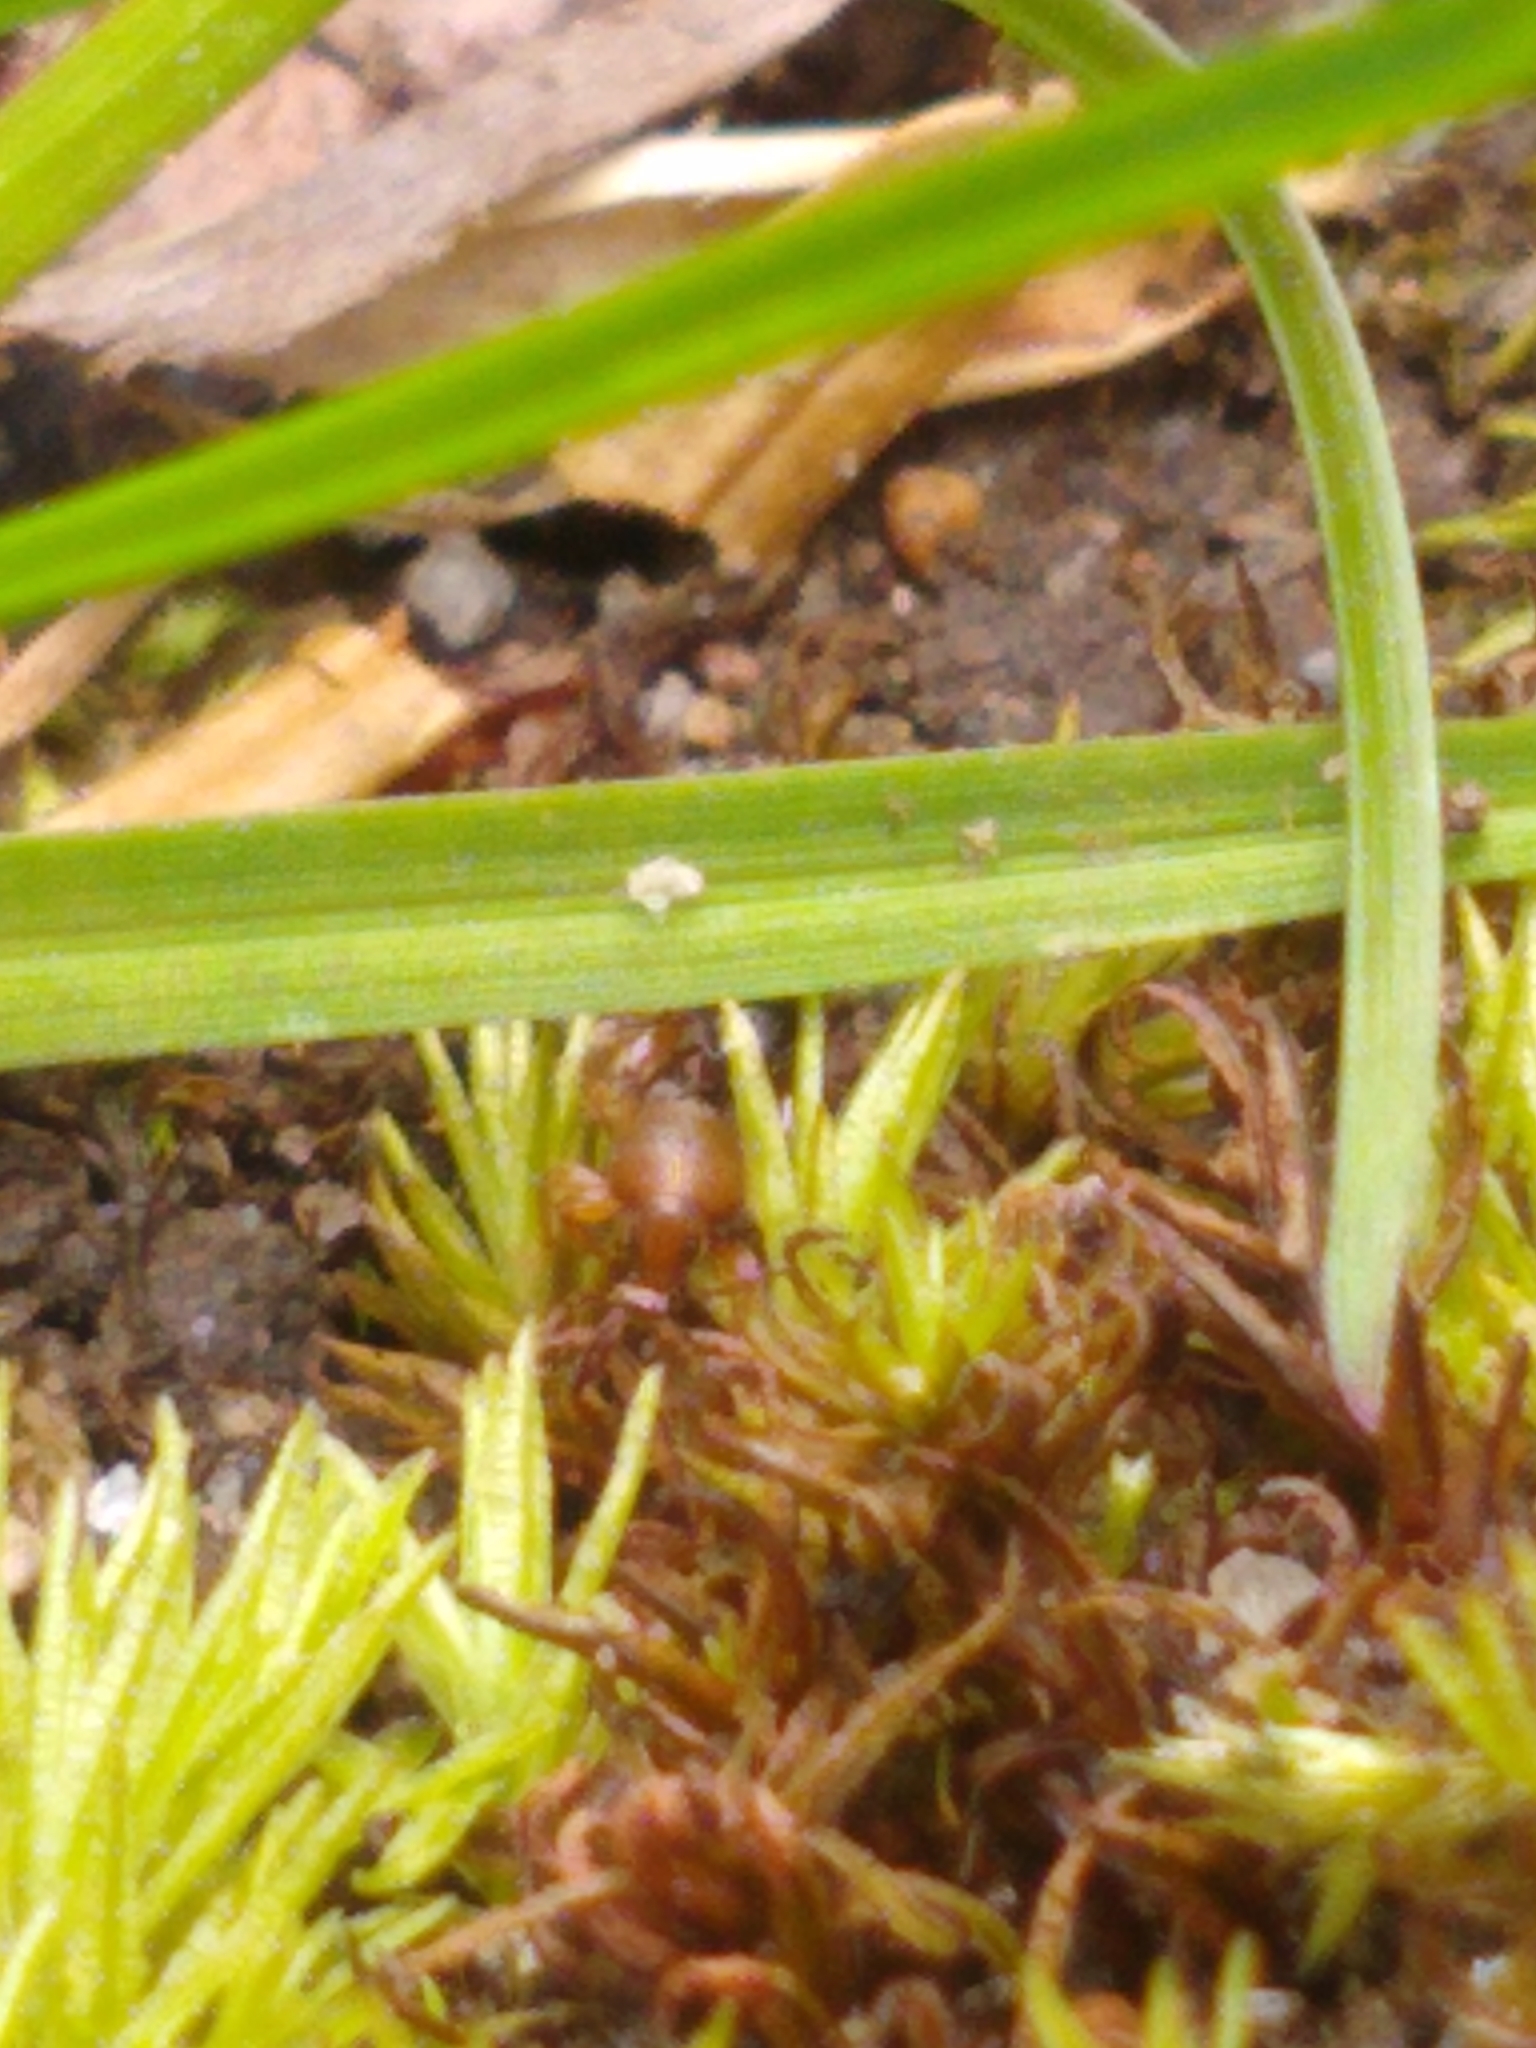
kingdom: Animalia
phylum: Arthropoda
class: Insecta
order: Coleoptera
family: Curculionidae
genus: Exomias
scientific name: Exomias pellucidus
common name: Hairy spider weevil
